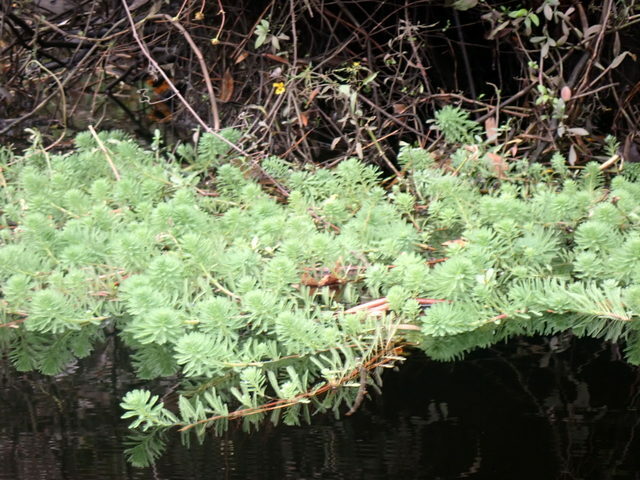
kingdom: Plantae
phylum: Tracheophyta
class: Magnoliopsida
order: Saxifragales
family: Haloragaceae
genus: Myriophyllum
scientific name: Myriophyllum aquaticum
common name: Parrot's feather
